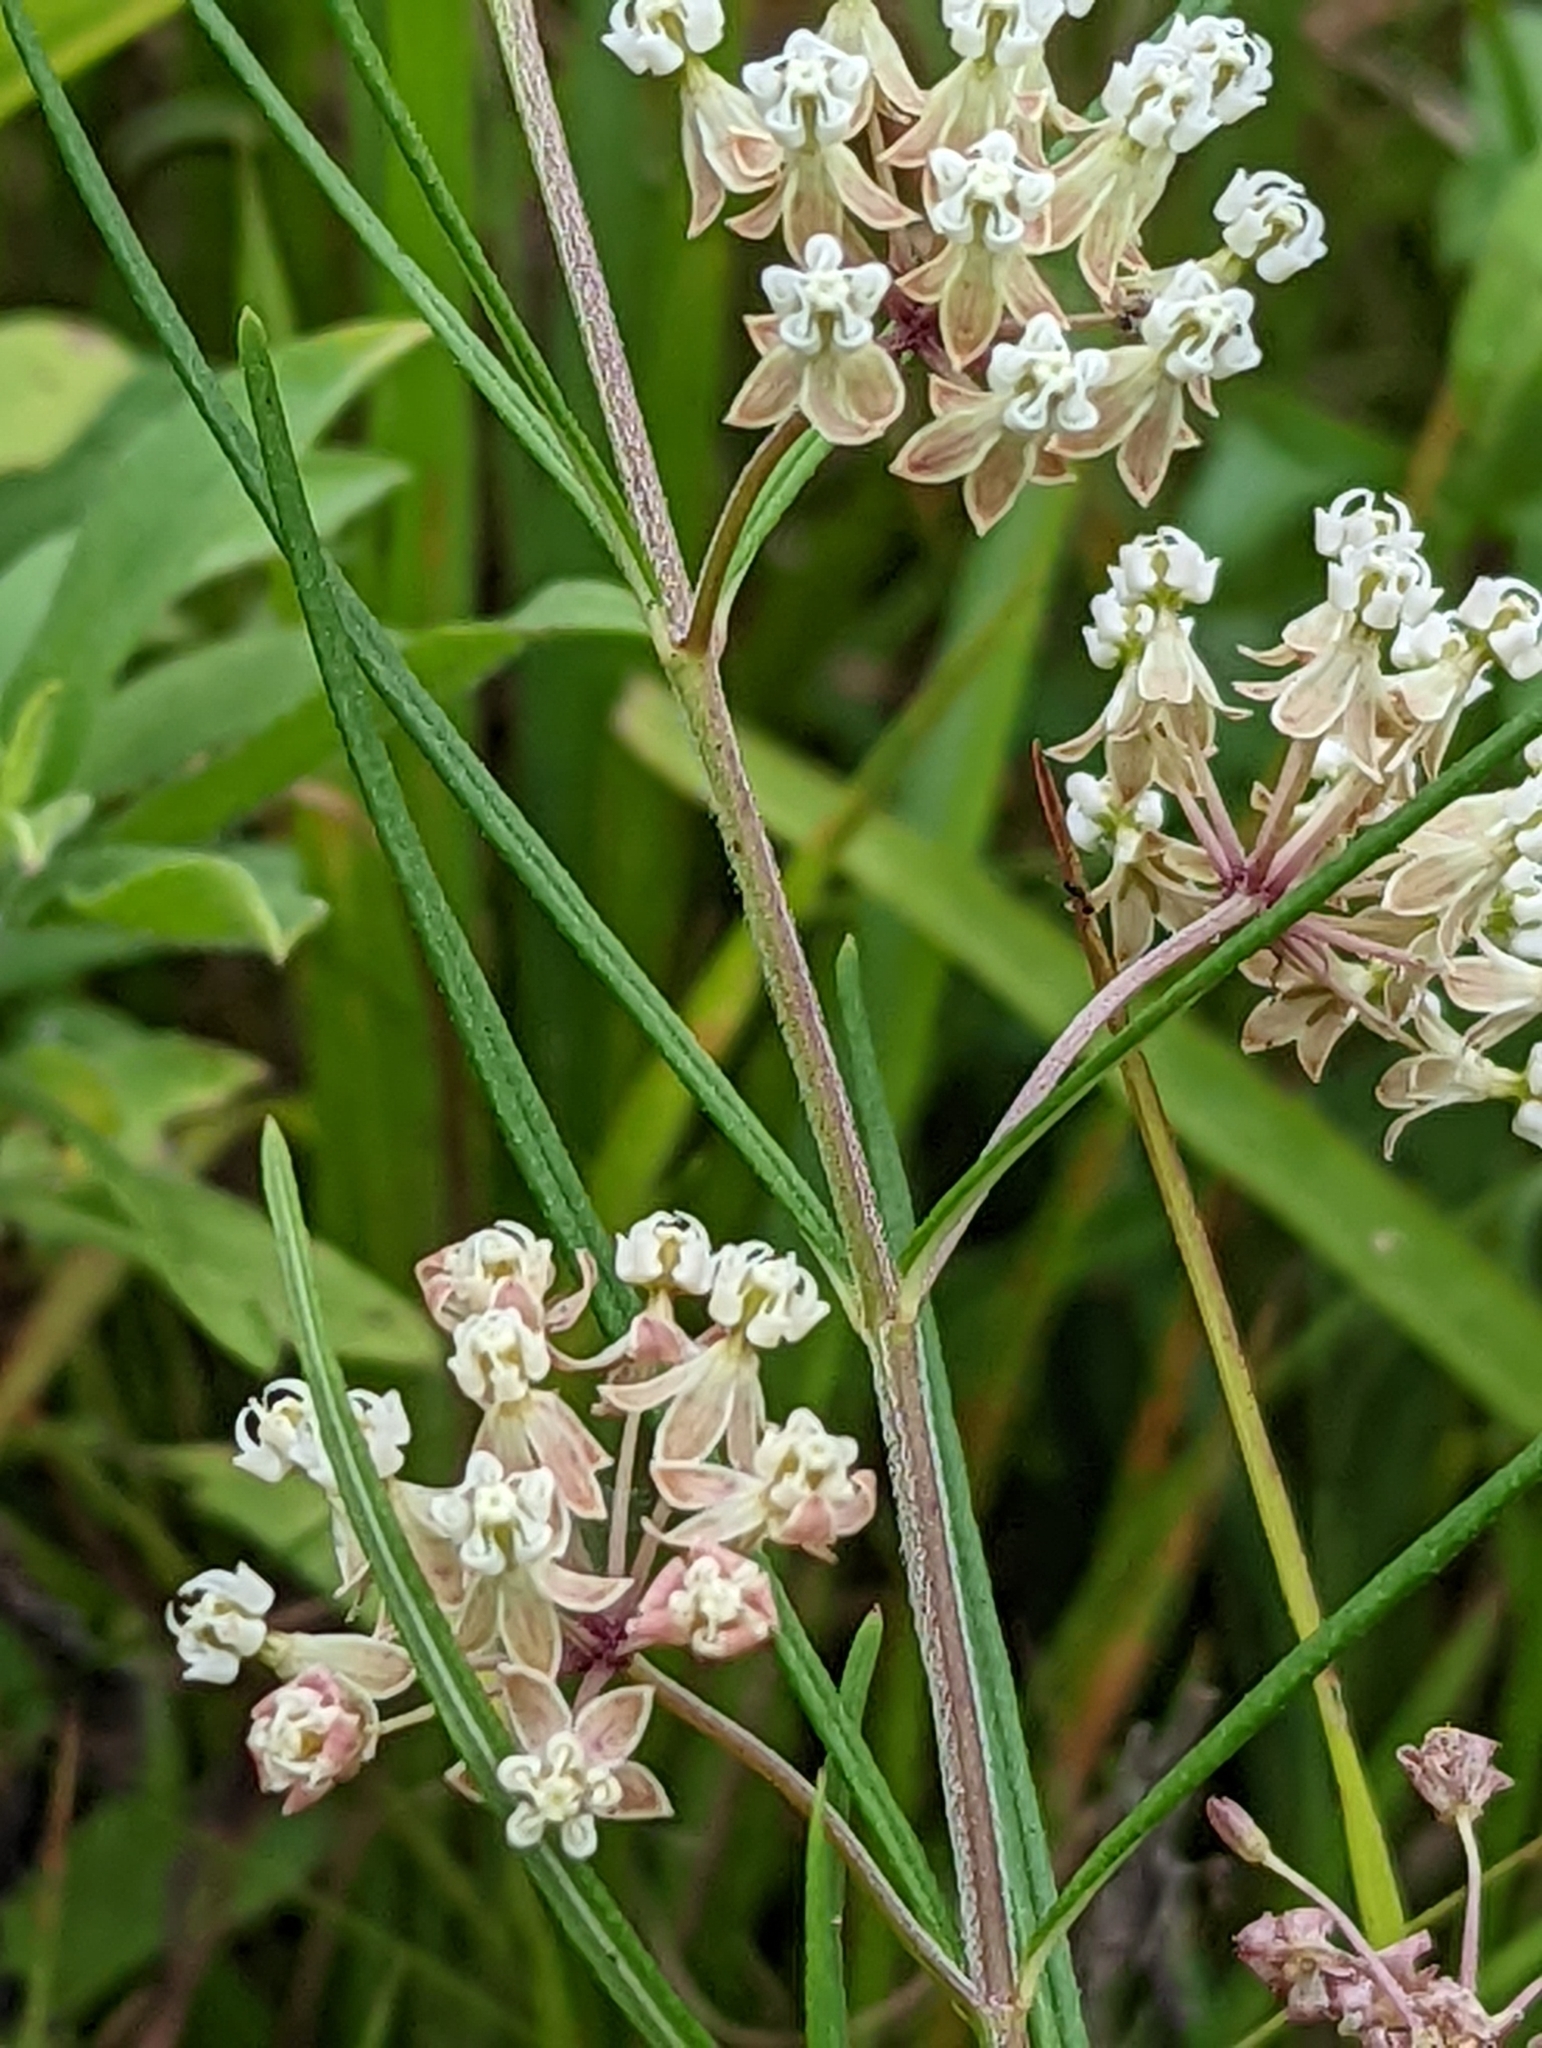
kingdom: Plantae
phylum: Tracheophyta
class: Magnoliopsida
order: Gentianales
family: Apocynaceae
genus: Asclepias
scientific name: Asclepias verticillata
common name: Eastern whorled milkweed
